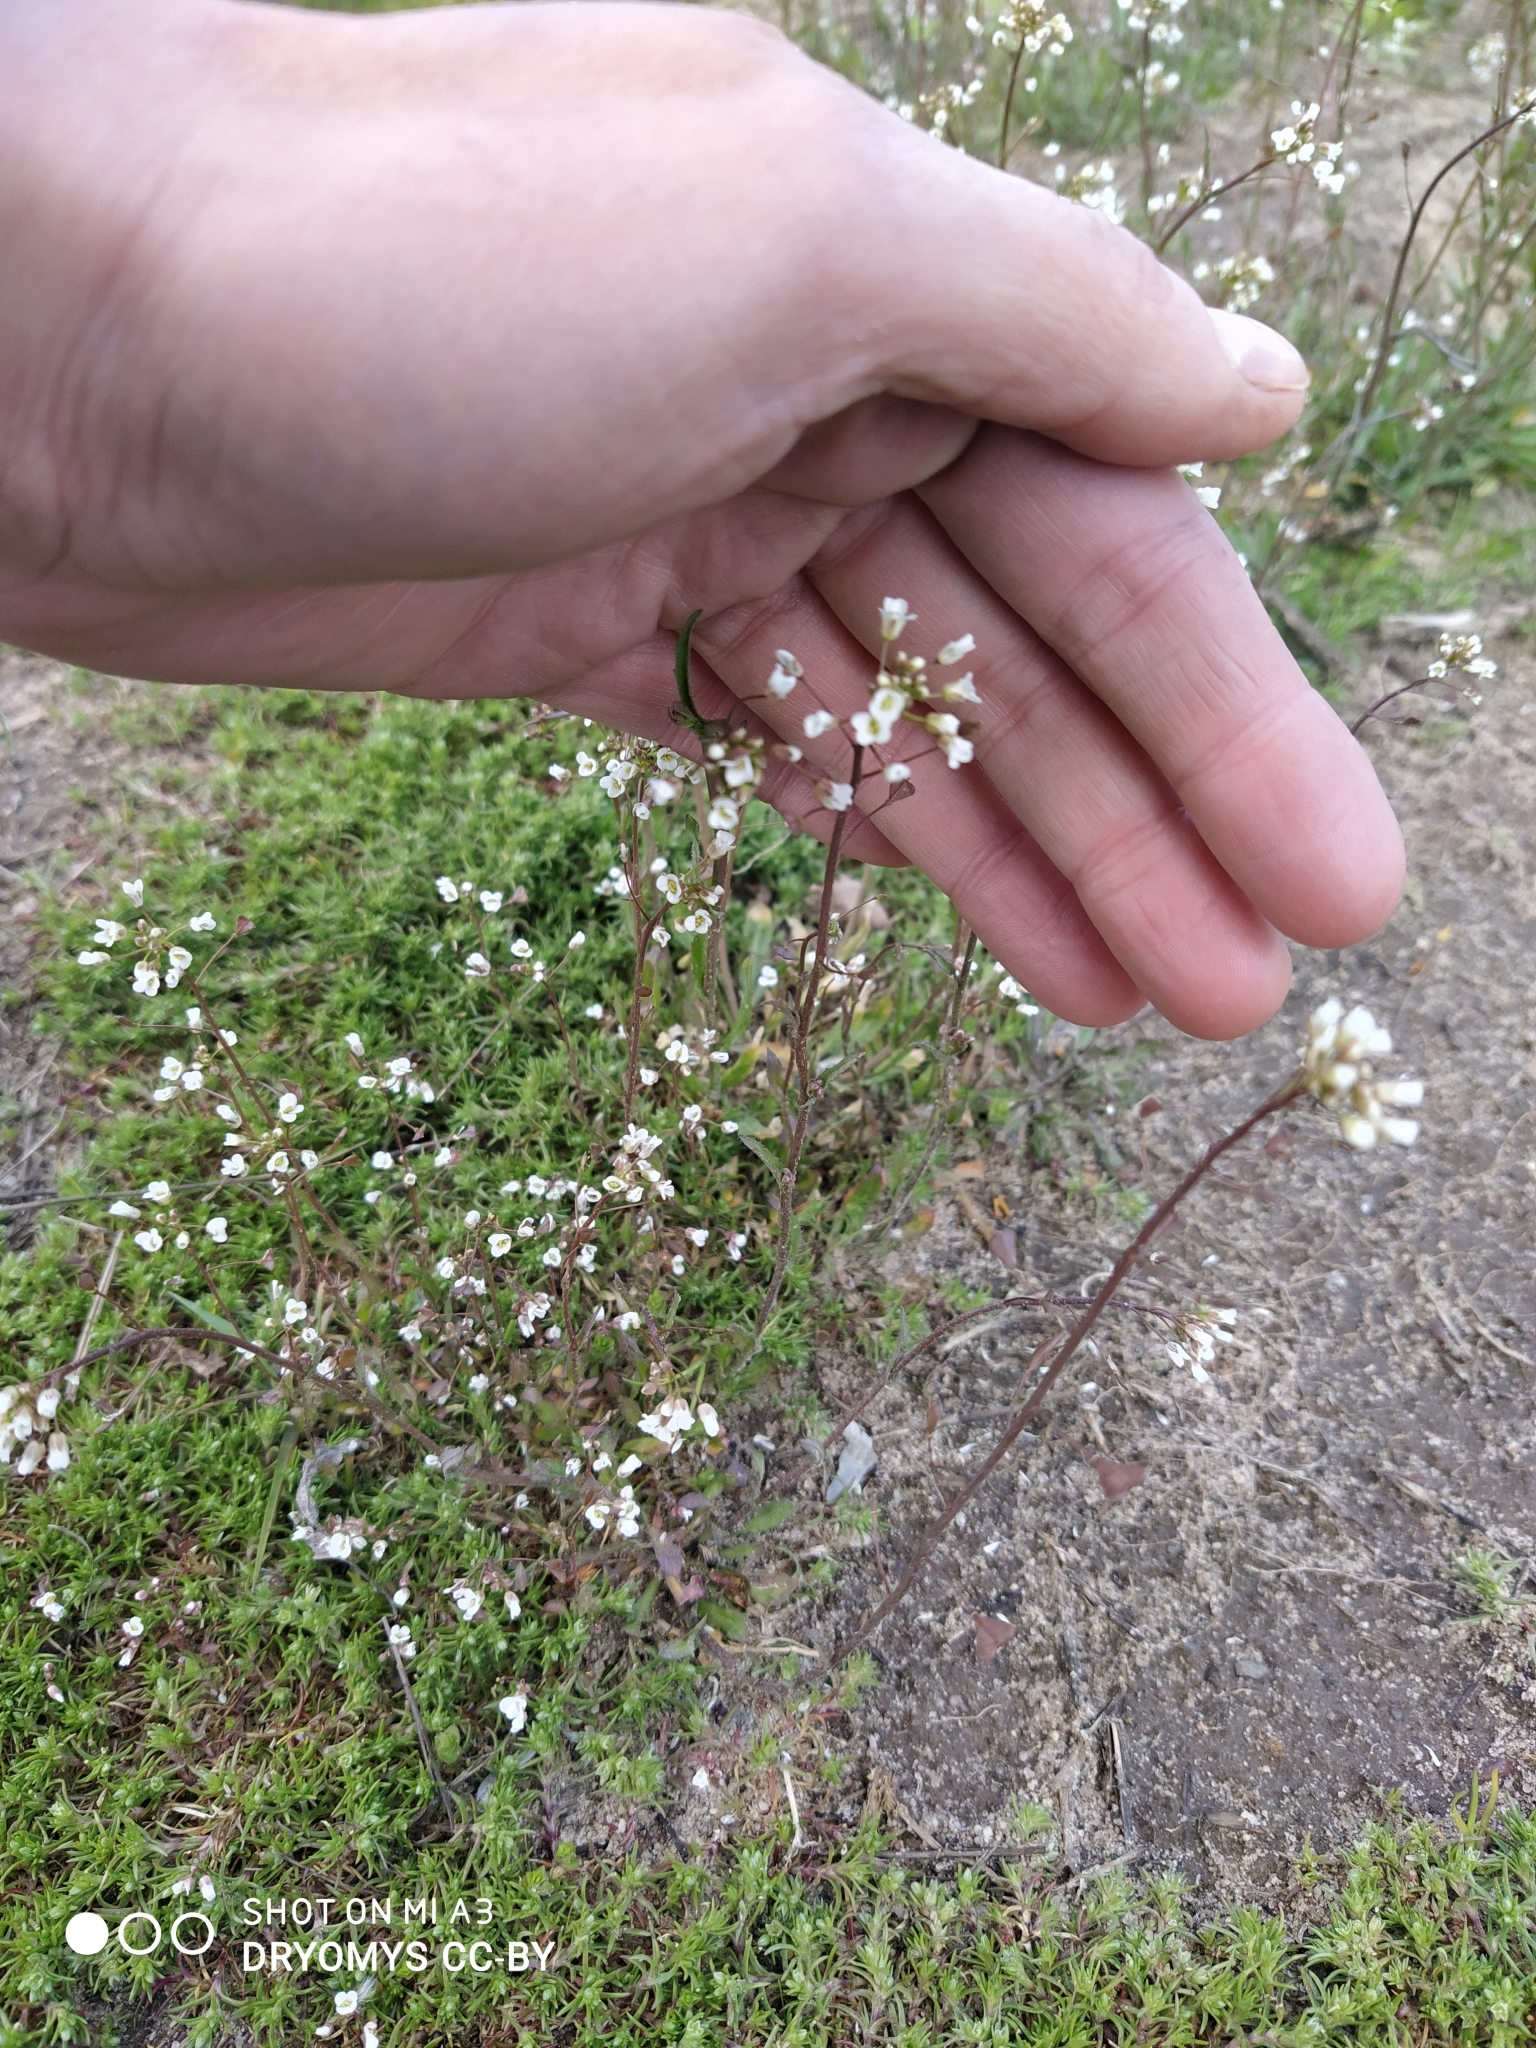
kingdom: Plantae
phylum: Tracheophyta
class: Magnoliopsida
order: Brassicales
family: Brassicaceae
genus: Capsella
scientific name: Capsella bursa-pastoris
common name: Shepherd's purse
